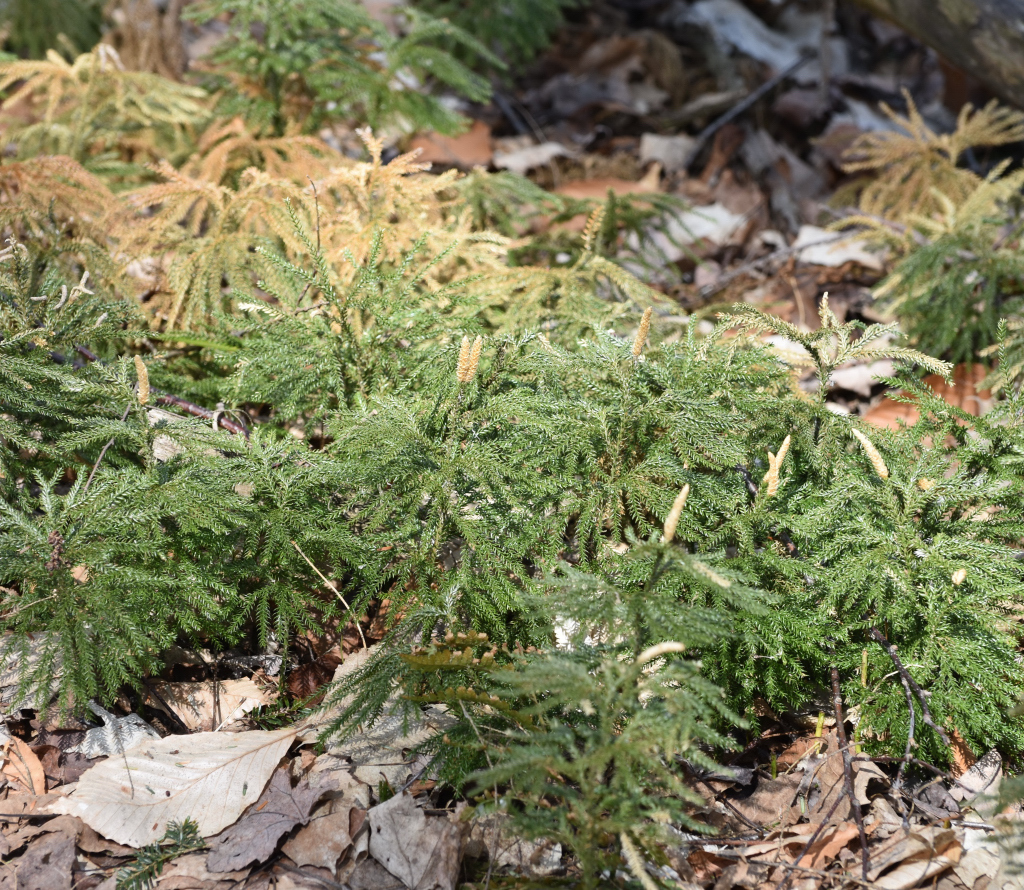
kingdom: Plantae
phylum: Tracheophyta
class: Lycopodiopsida
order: Lycopodiales
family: Lycopodiaceae
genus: Dendrolycopodium
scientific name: Dendrolycopodium dendroideum
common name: Northern tree-clubmoss
